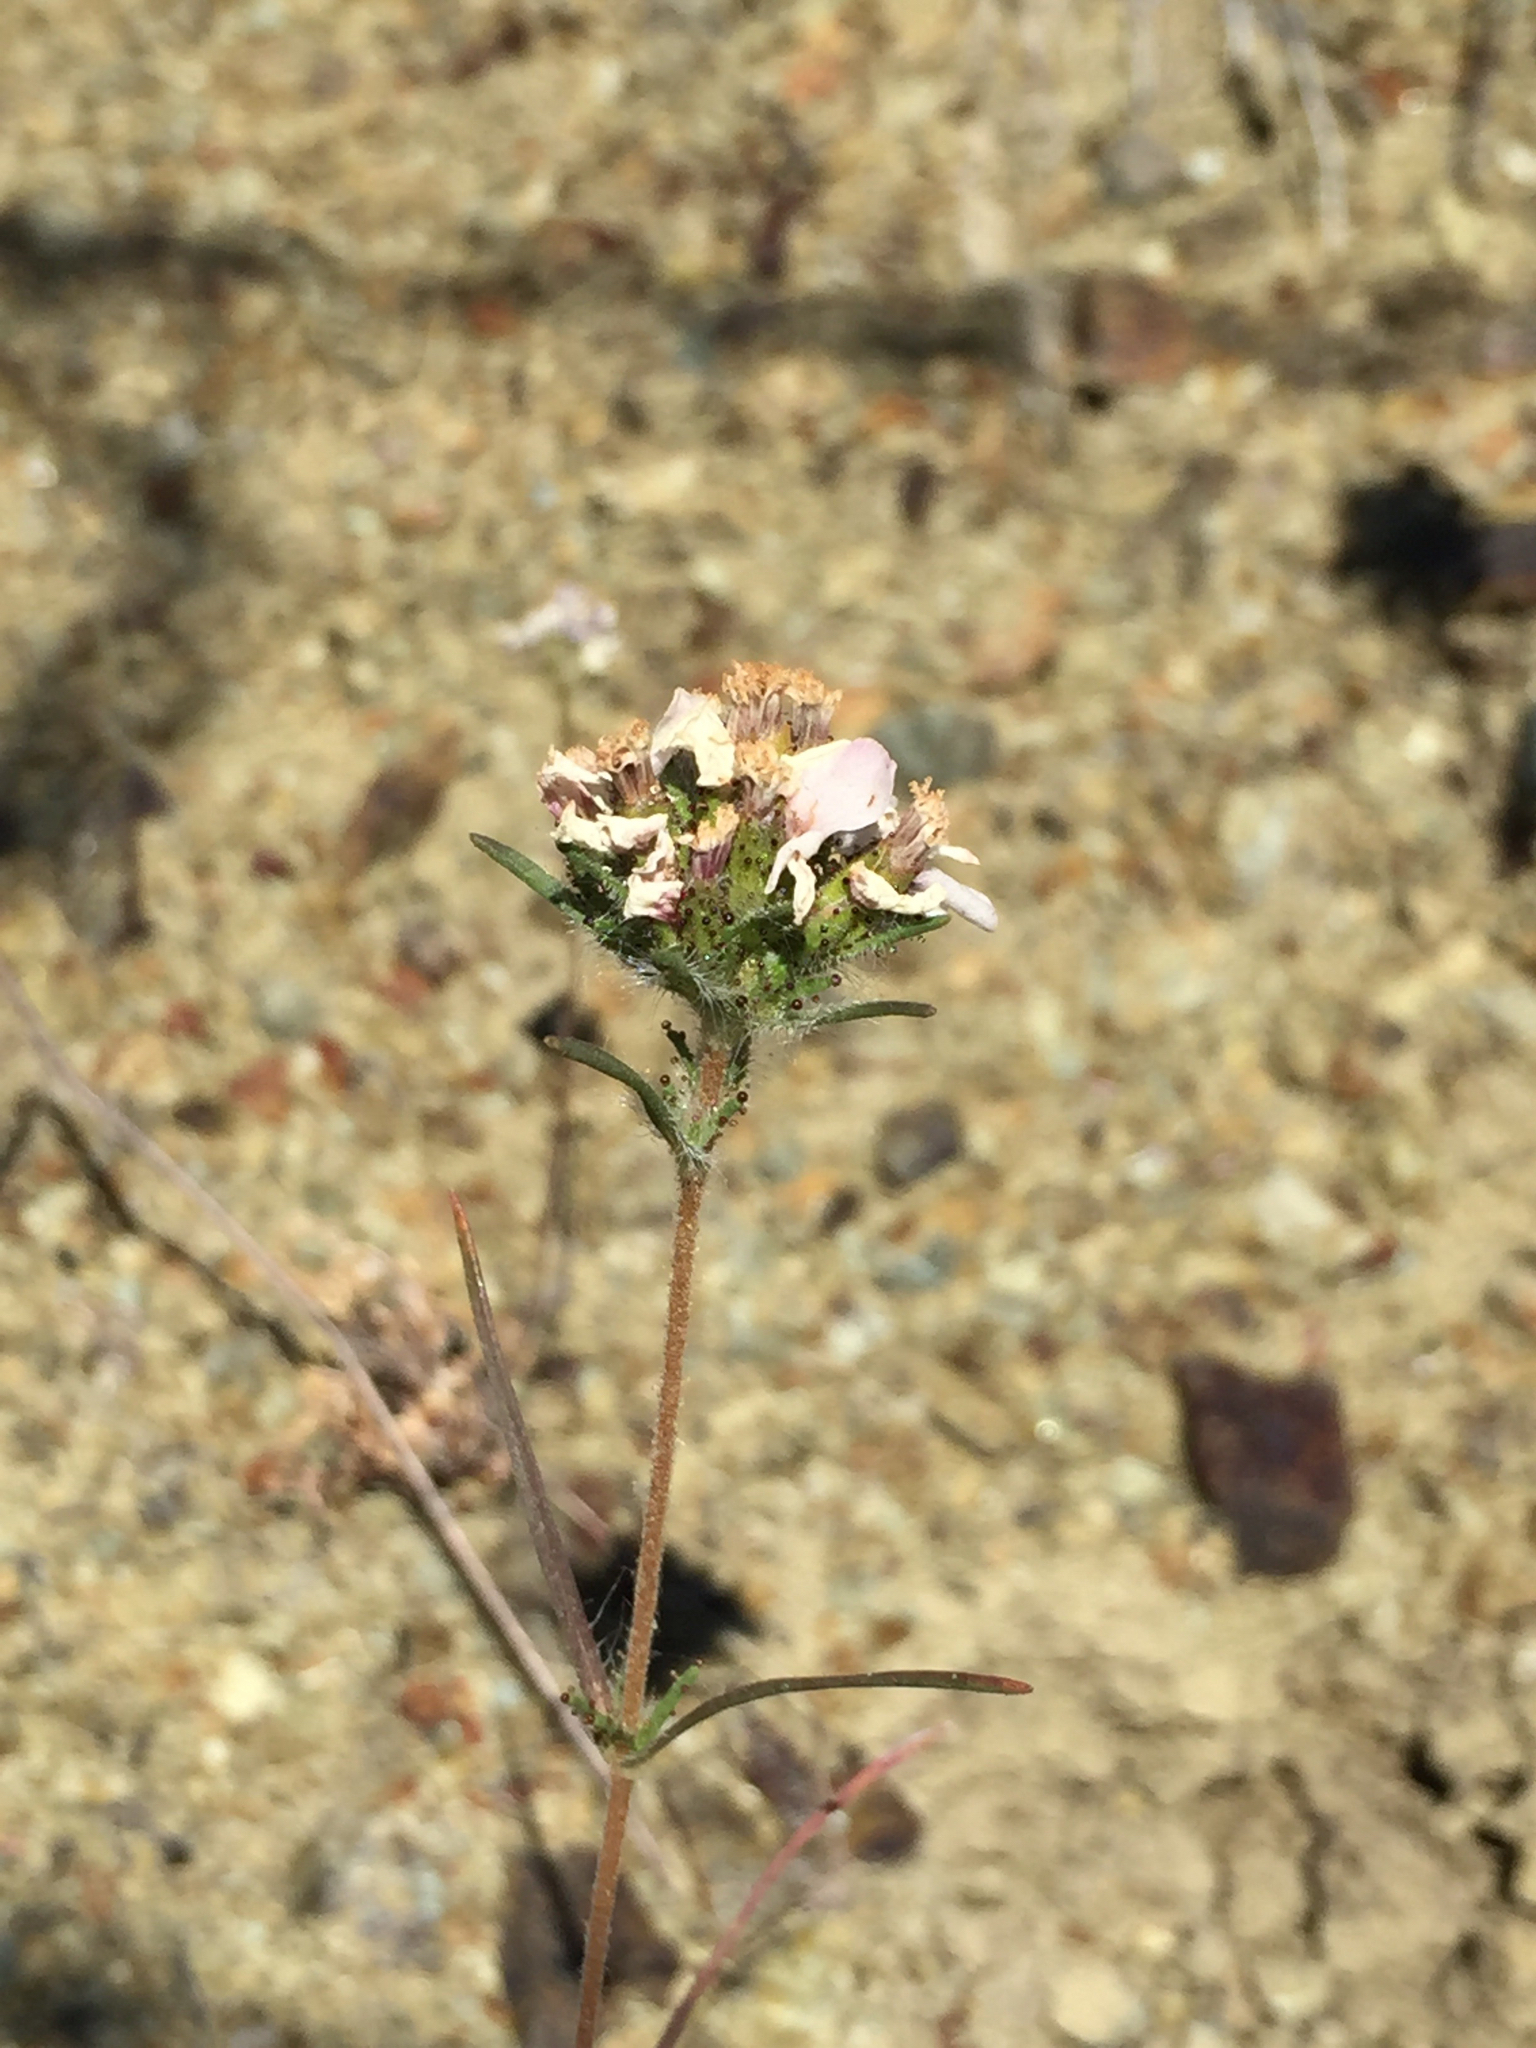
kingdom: Plantae
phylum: Tracheophyta
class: Magnoliopsida
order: Asterales
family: Asteraceae
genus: Calycadenia
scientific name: Calycadenia multiglandulosa
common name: Sticky calycadenia
